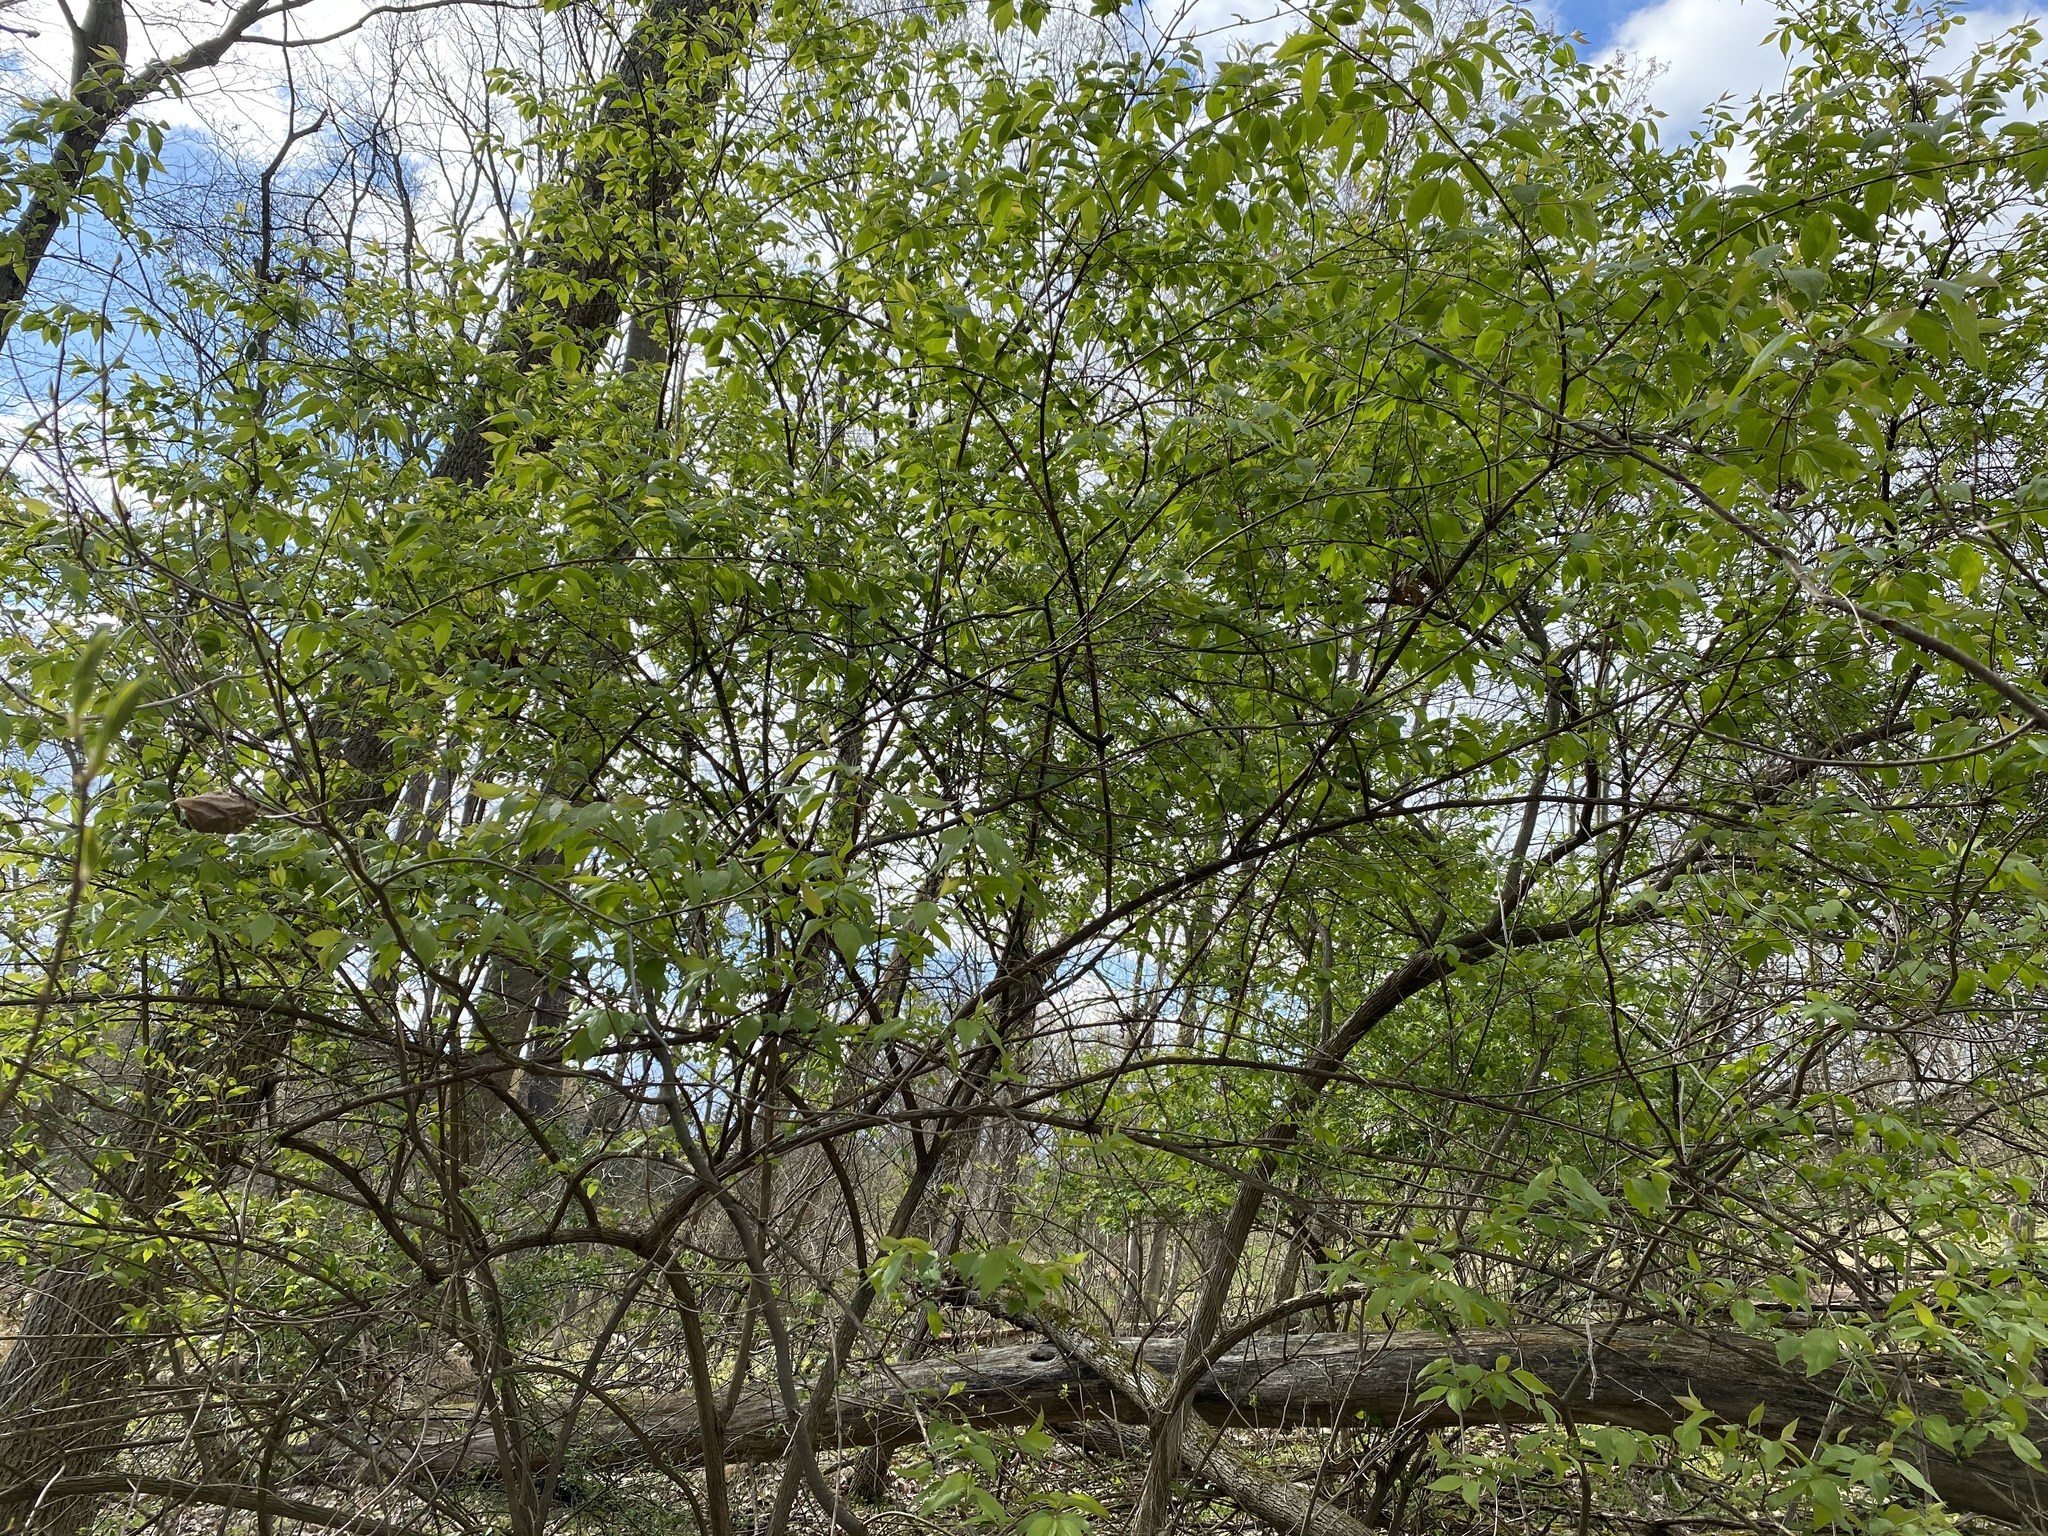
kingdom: Plantae
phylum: Tracheophyta
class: Magnoliopsida
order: Dipsacales
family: Caprifoliaceae
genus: Lonicera
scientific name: Lonicera maackii
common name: Amur honeysuckle
